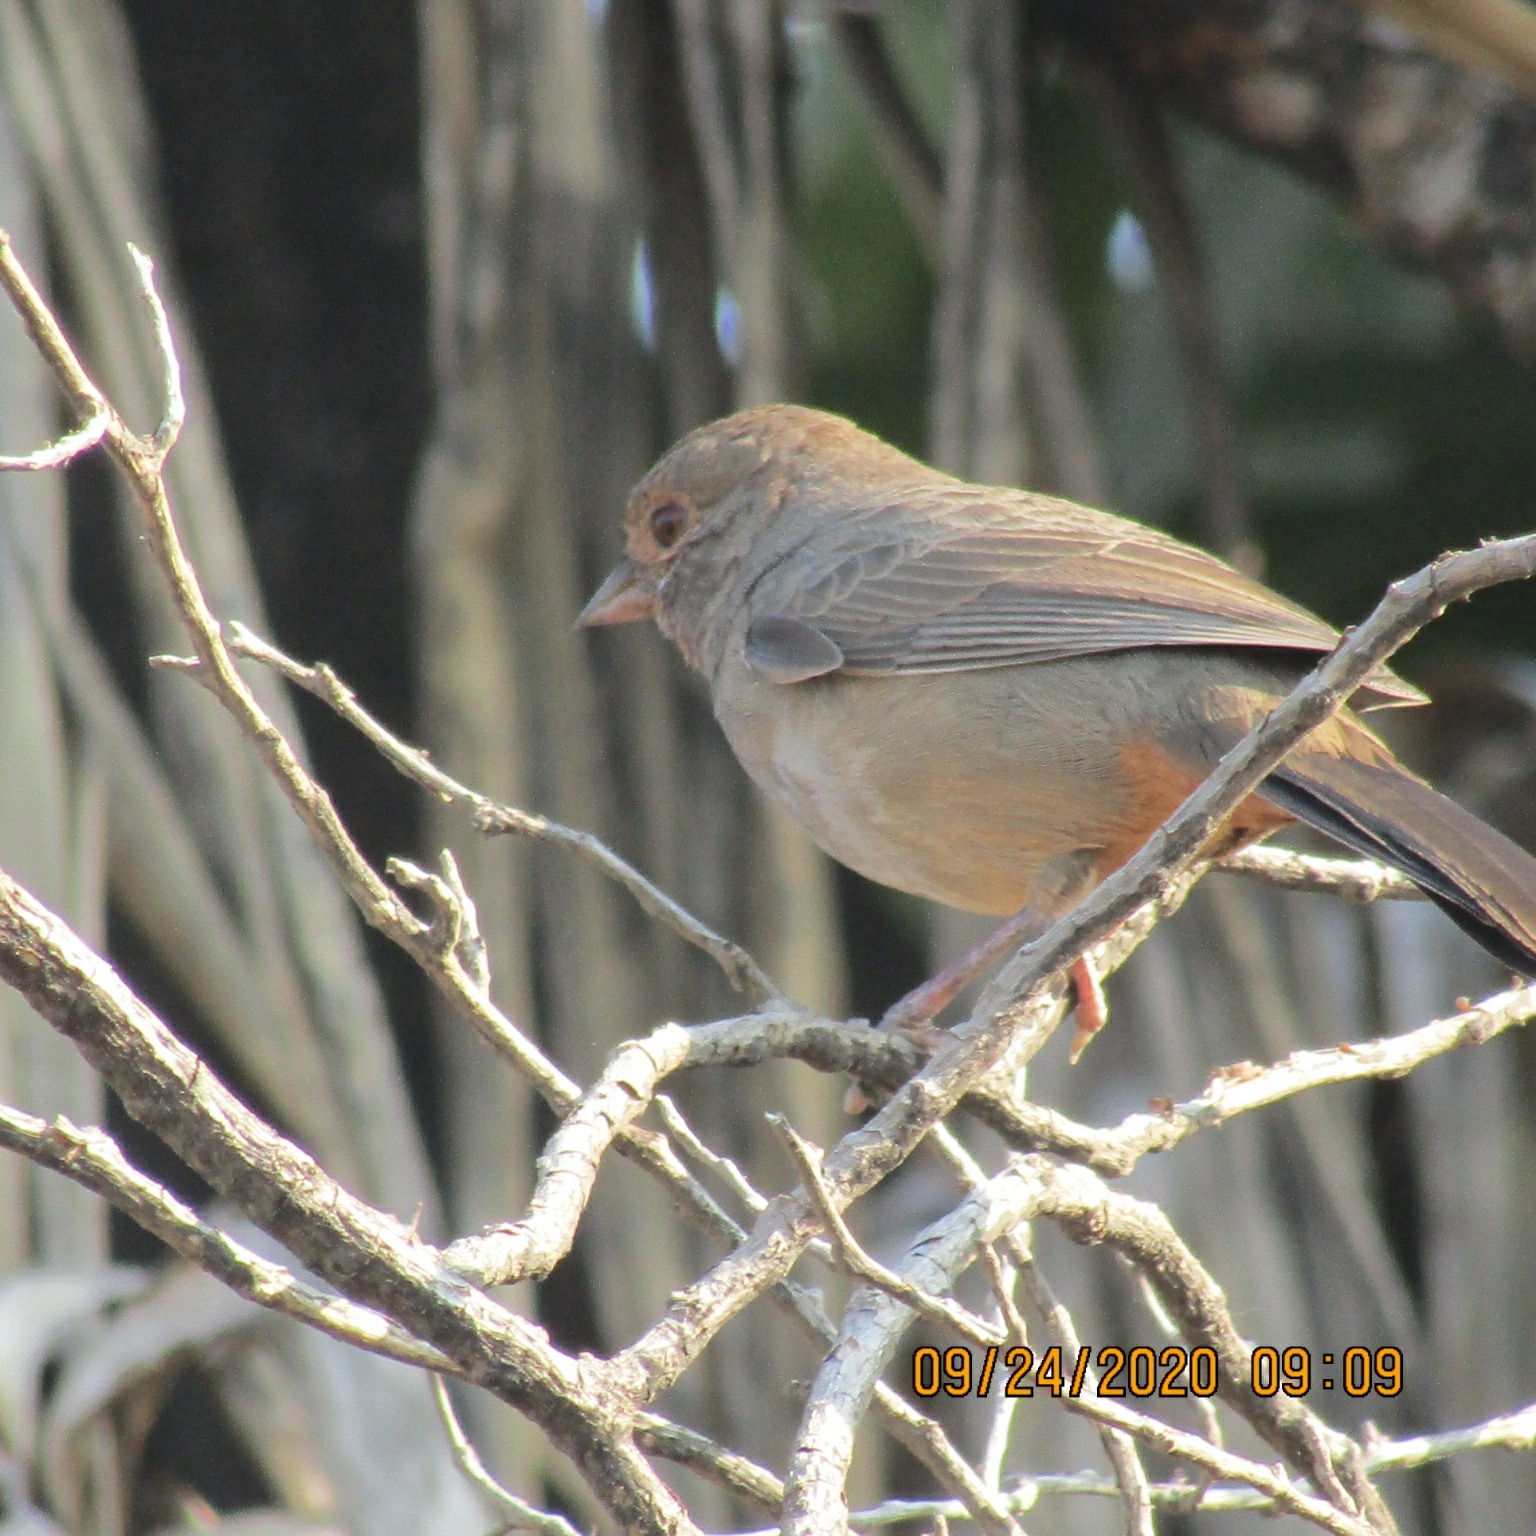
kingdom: Animalia
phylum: Chordata
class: Aves
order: Passeriformes
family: Passerellidae
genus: Melozone
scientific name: Melozone crissalis
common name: California towhee
